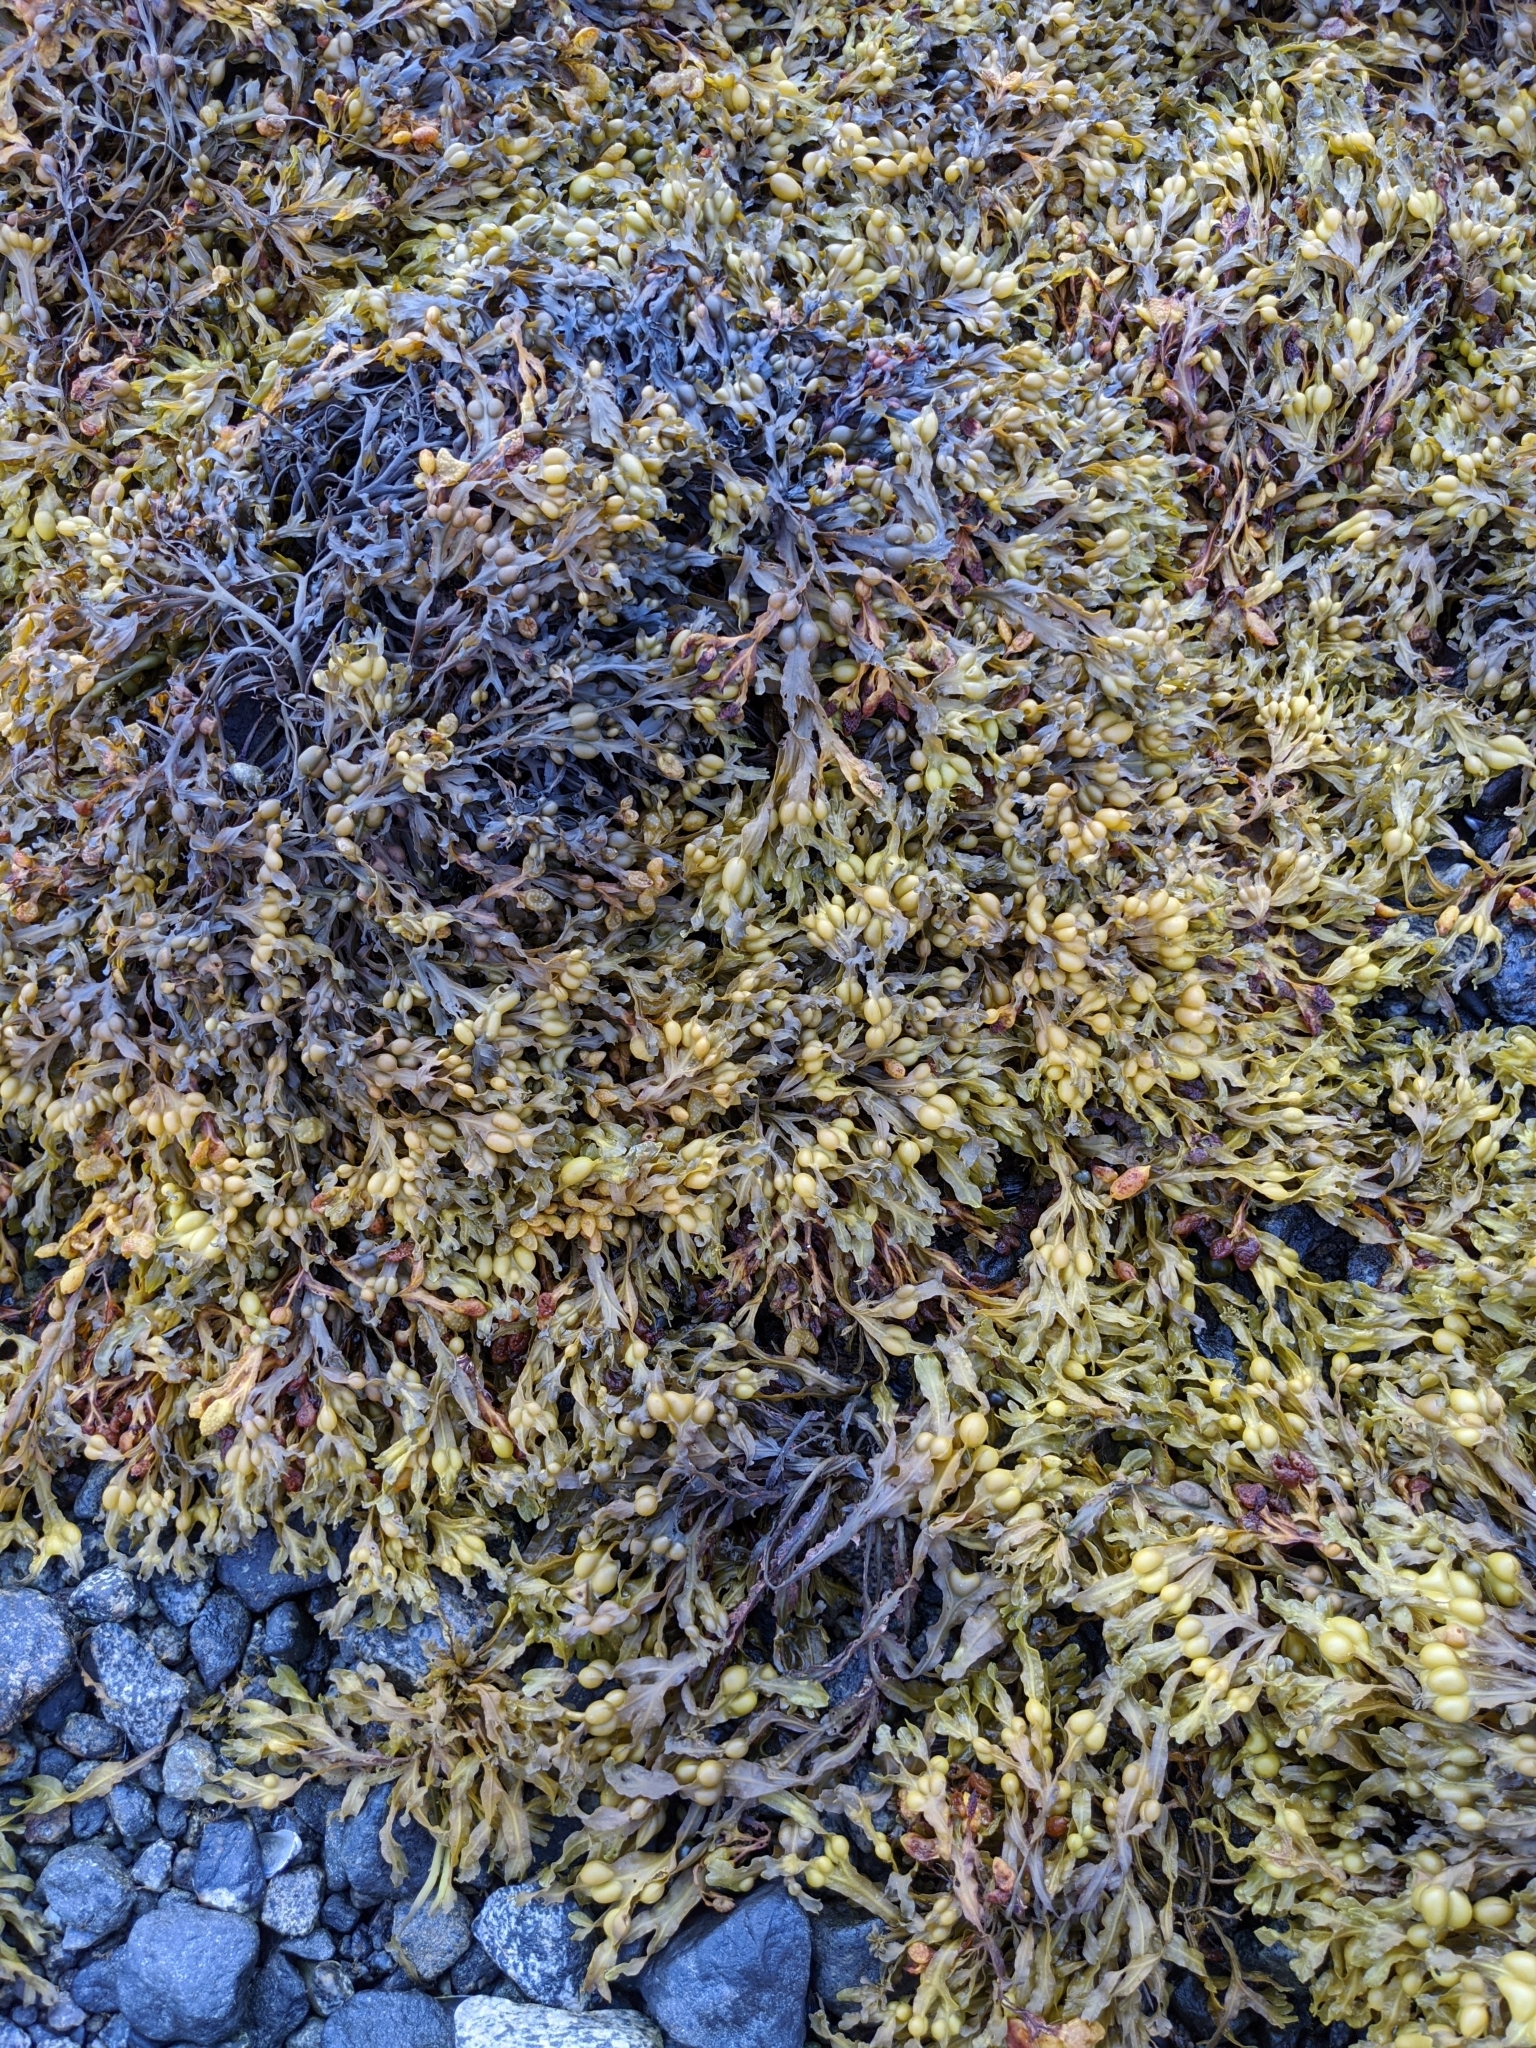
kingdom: Chromista
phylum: Ochrophyta
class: Phaeophyceae
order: Fucales
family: Fucaceae
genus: Fucus
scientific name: Fucus vesiculosus
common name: Bladder wrack
